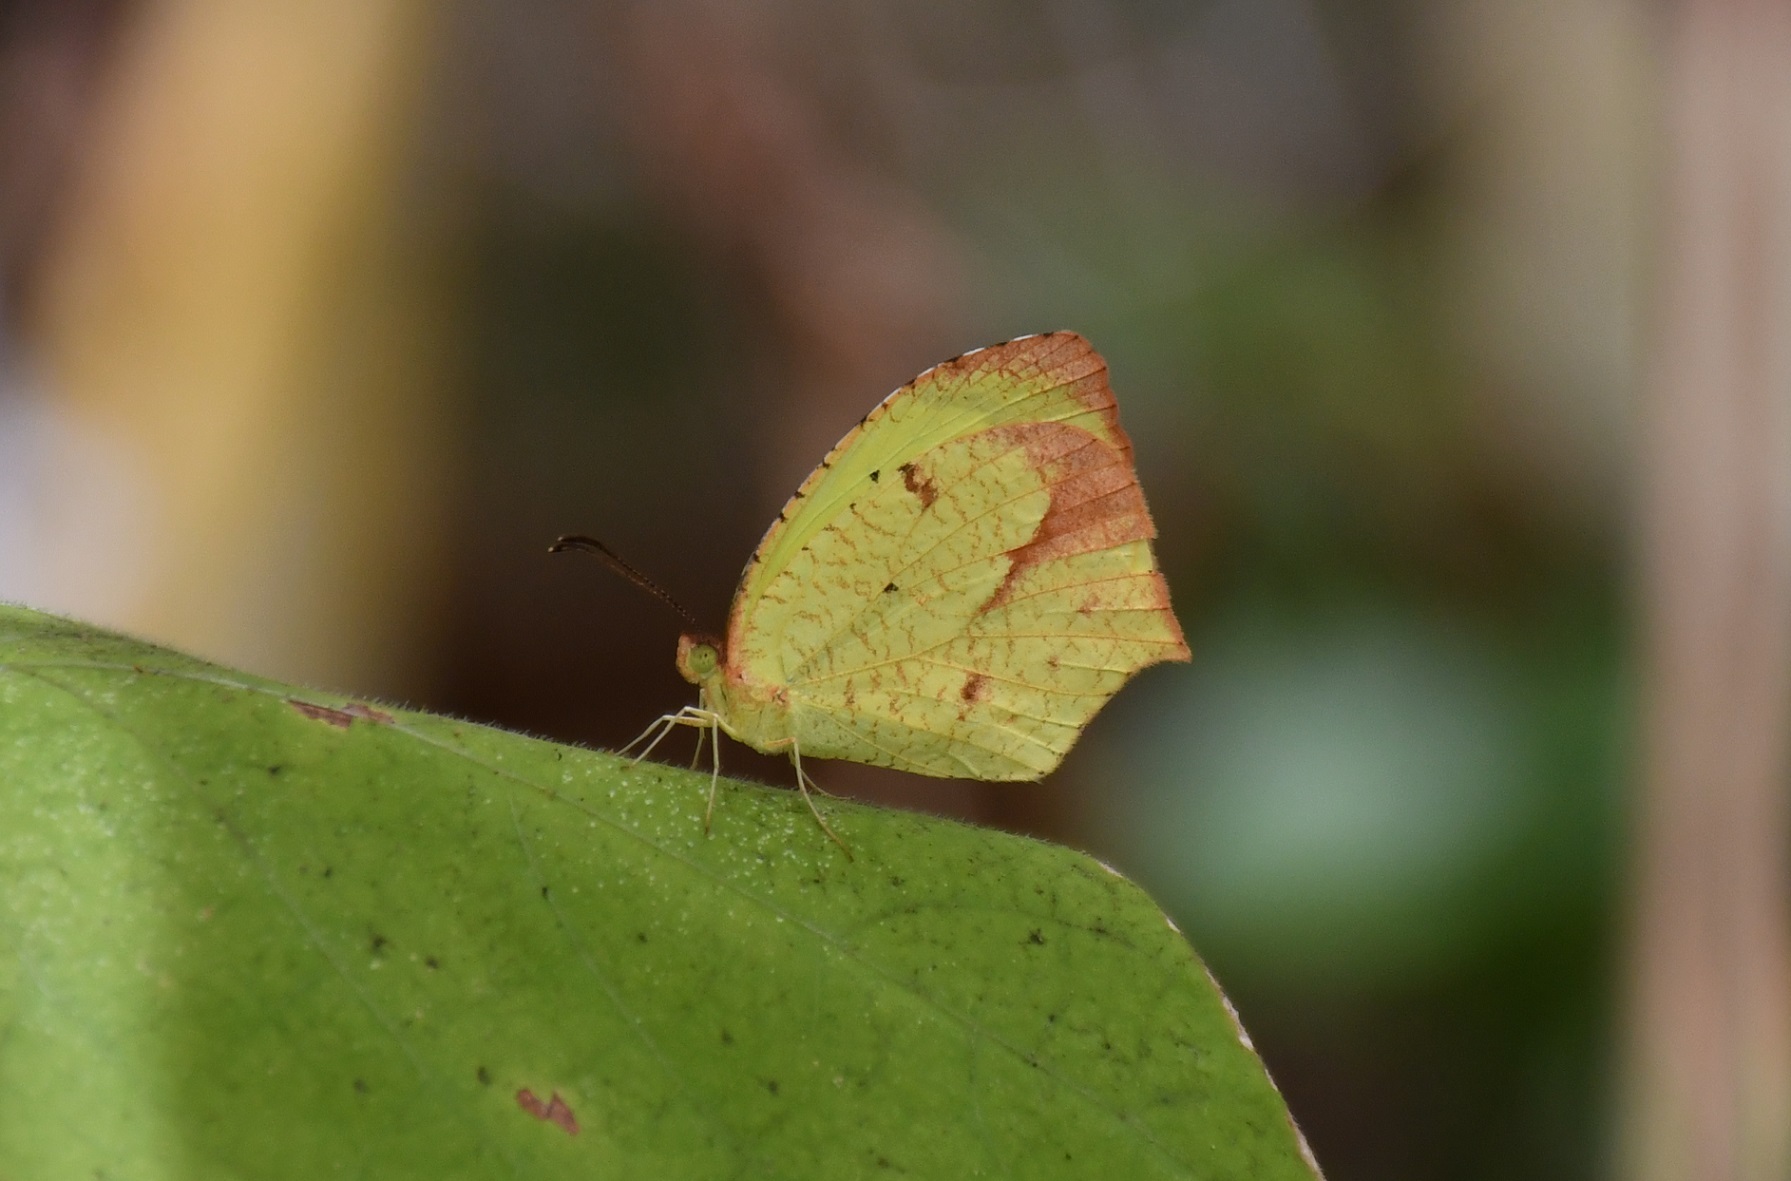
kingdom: Animalia
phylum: Arthropoda
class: Insecta
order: Lepidoptera
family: Pieridae
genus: Abaeis
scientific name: Abaeis boisduvaliana
